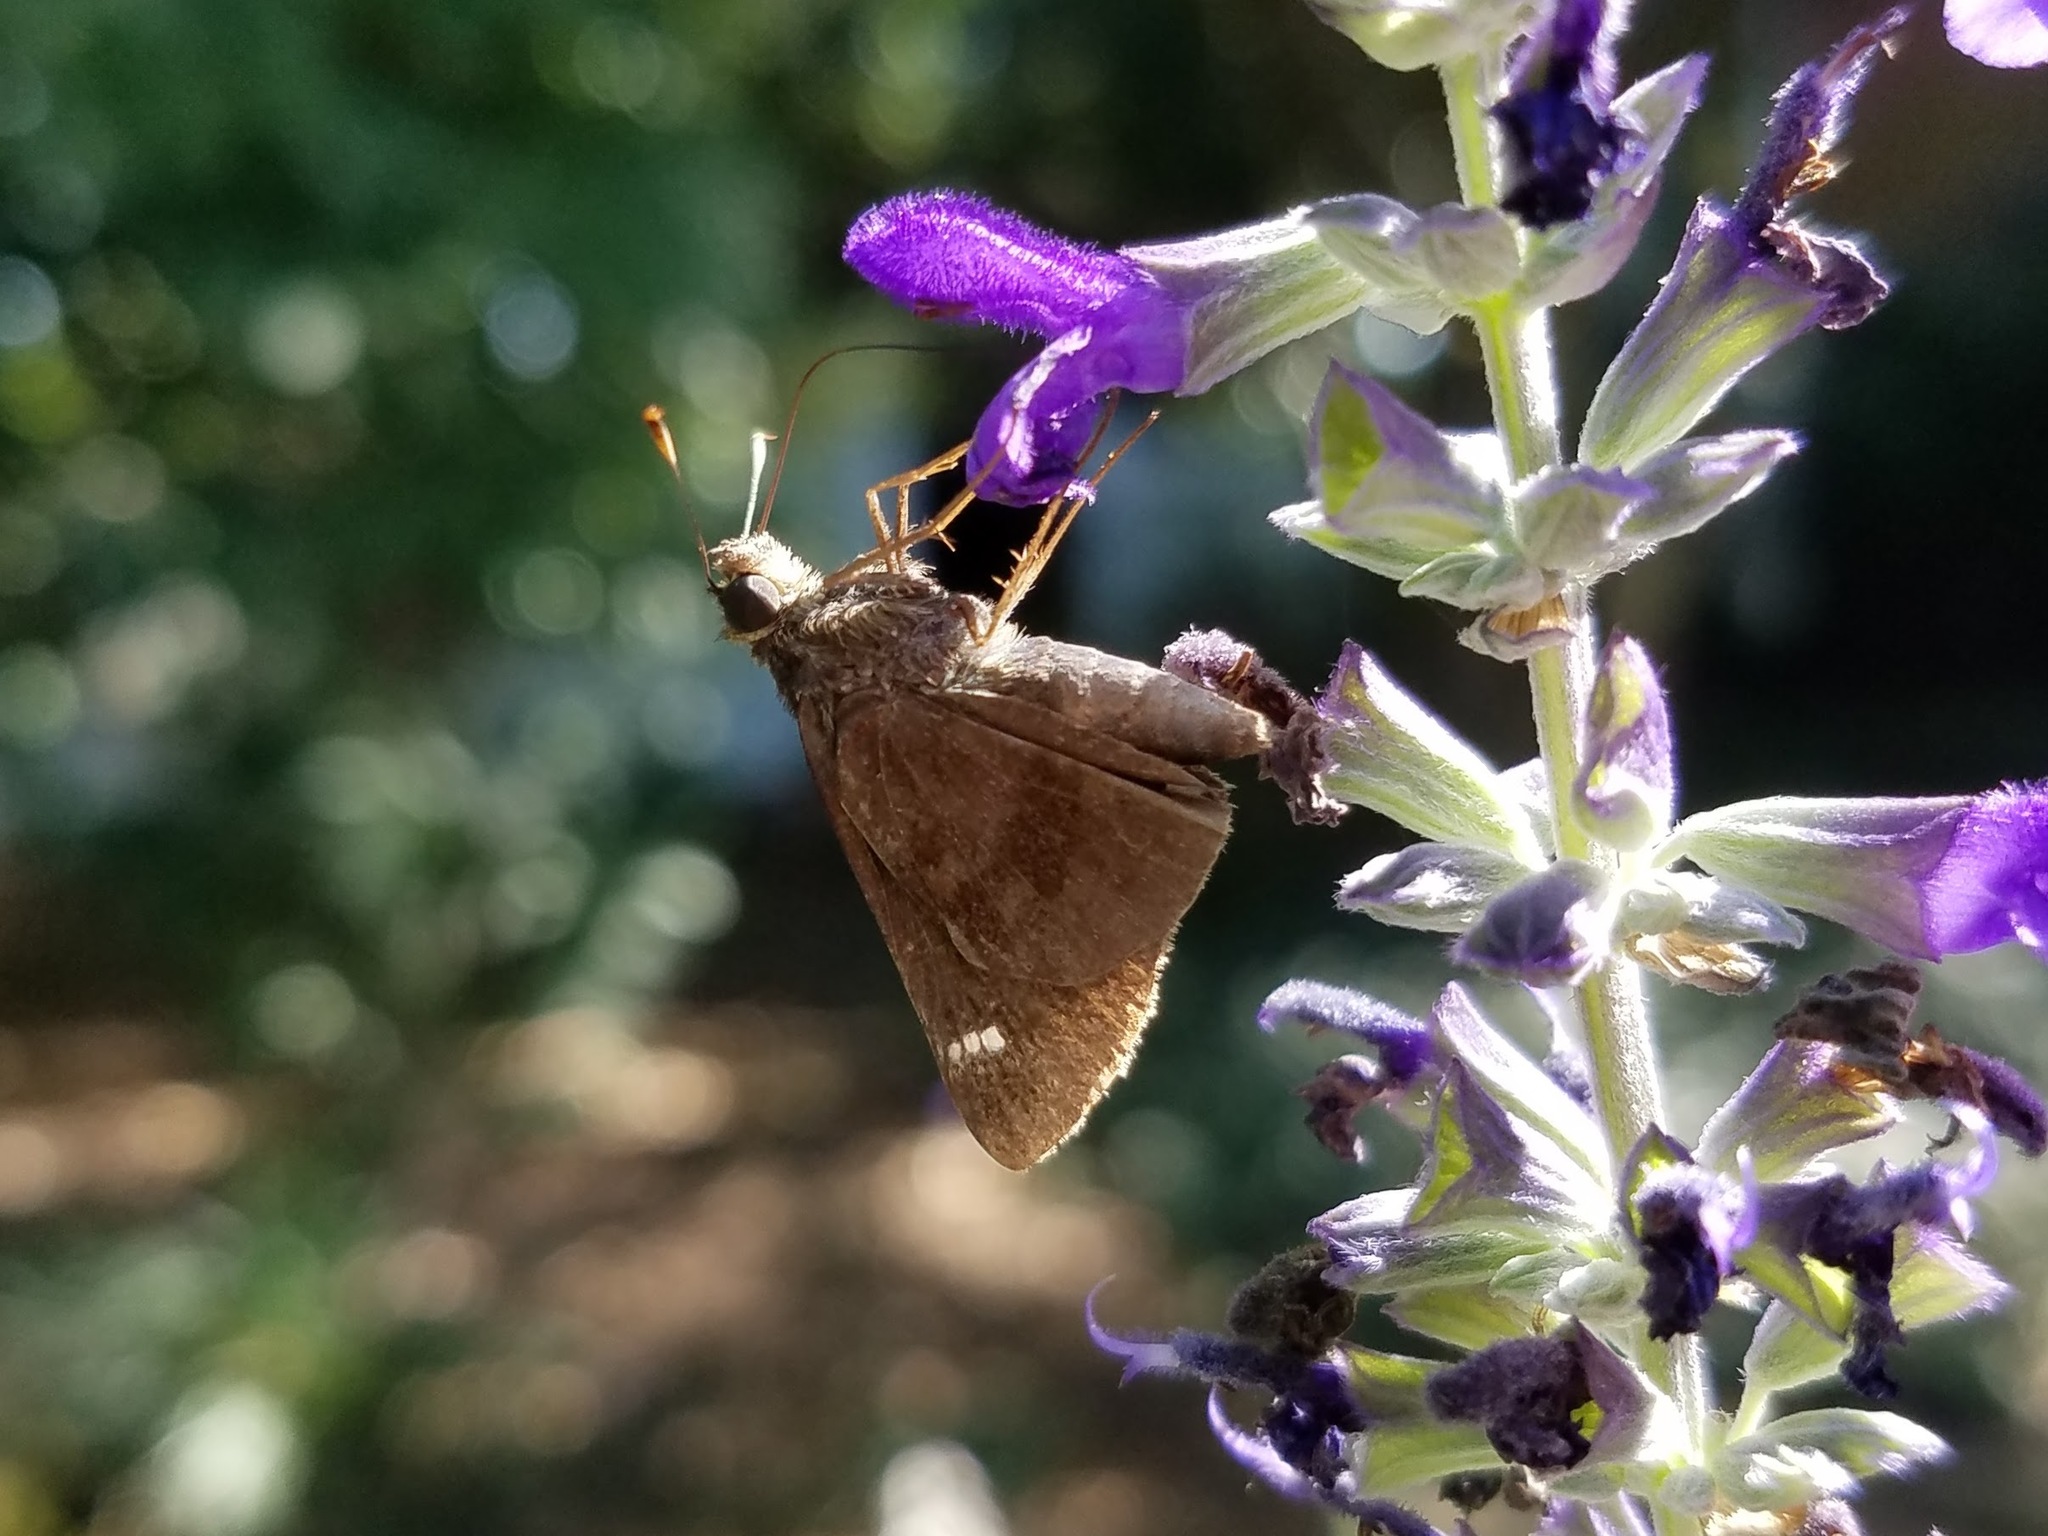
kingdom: Animalia
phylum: Arthropoda
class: Insecta
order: Lepidoptera
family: Hesperiidae
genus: Lerema
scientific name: Lerema accius
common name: Clouded skipper
